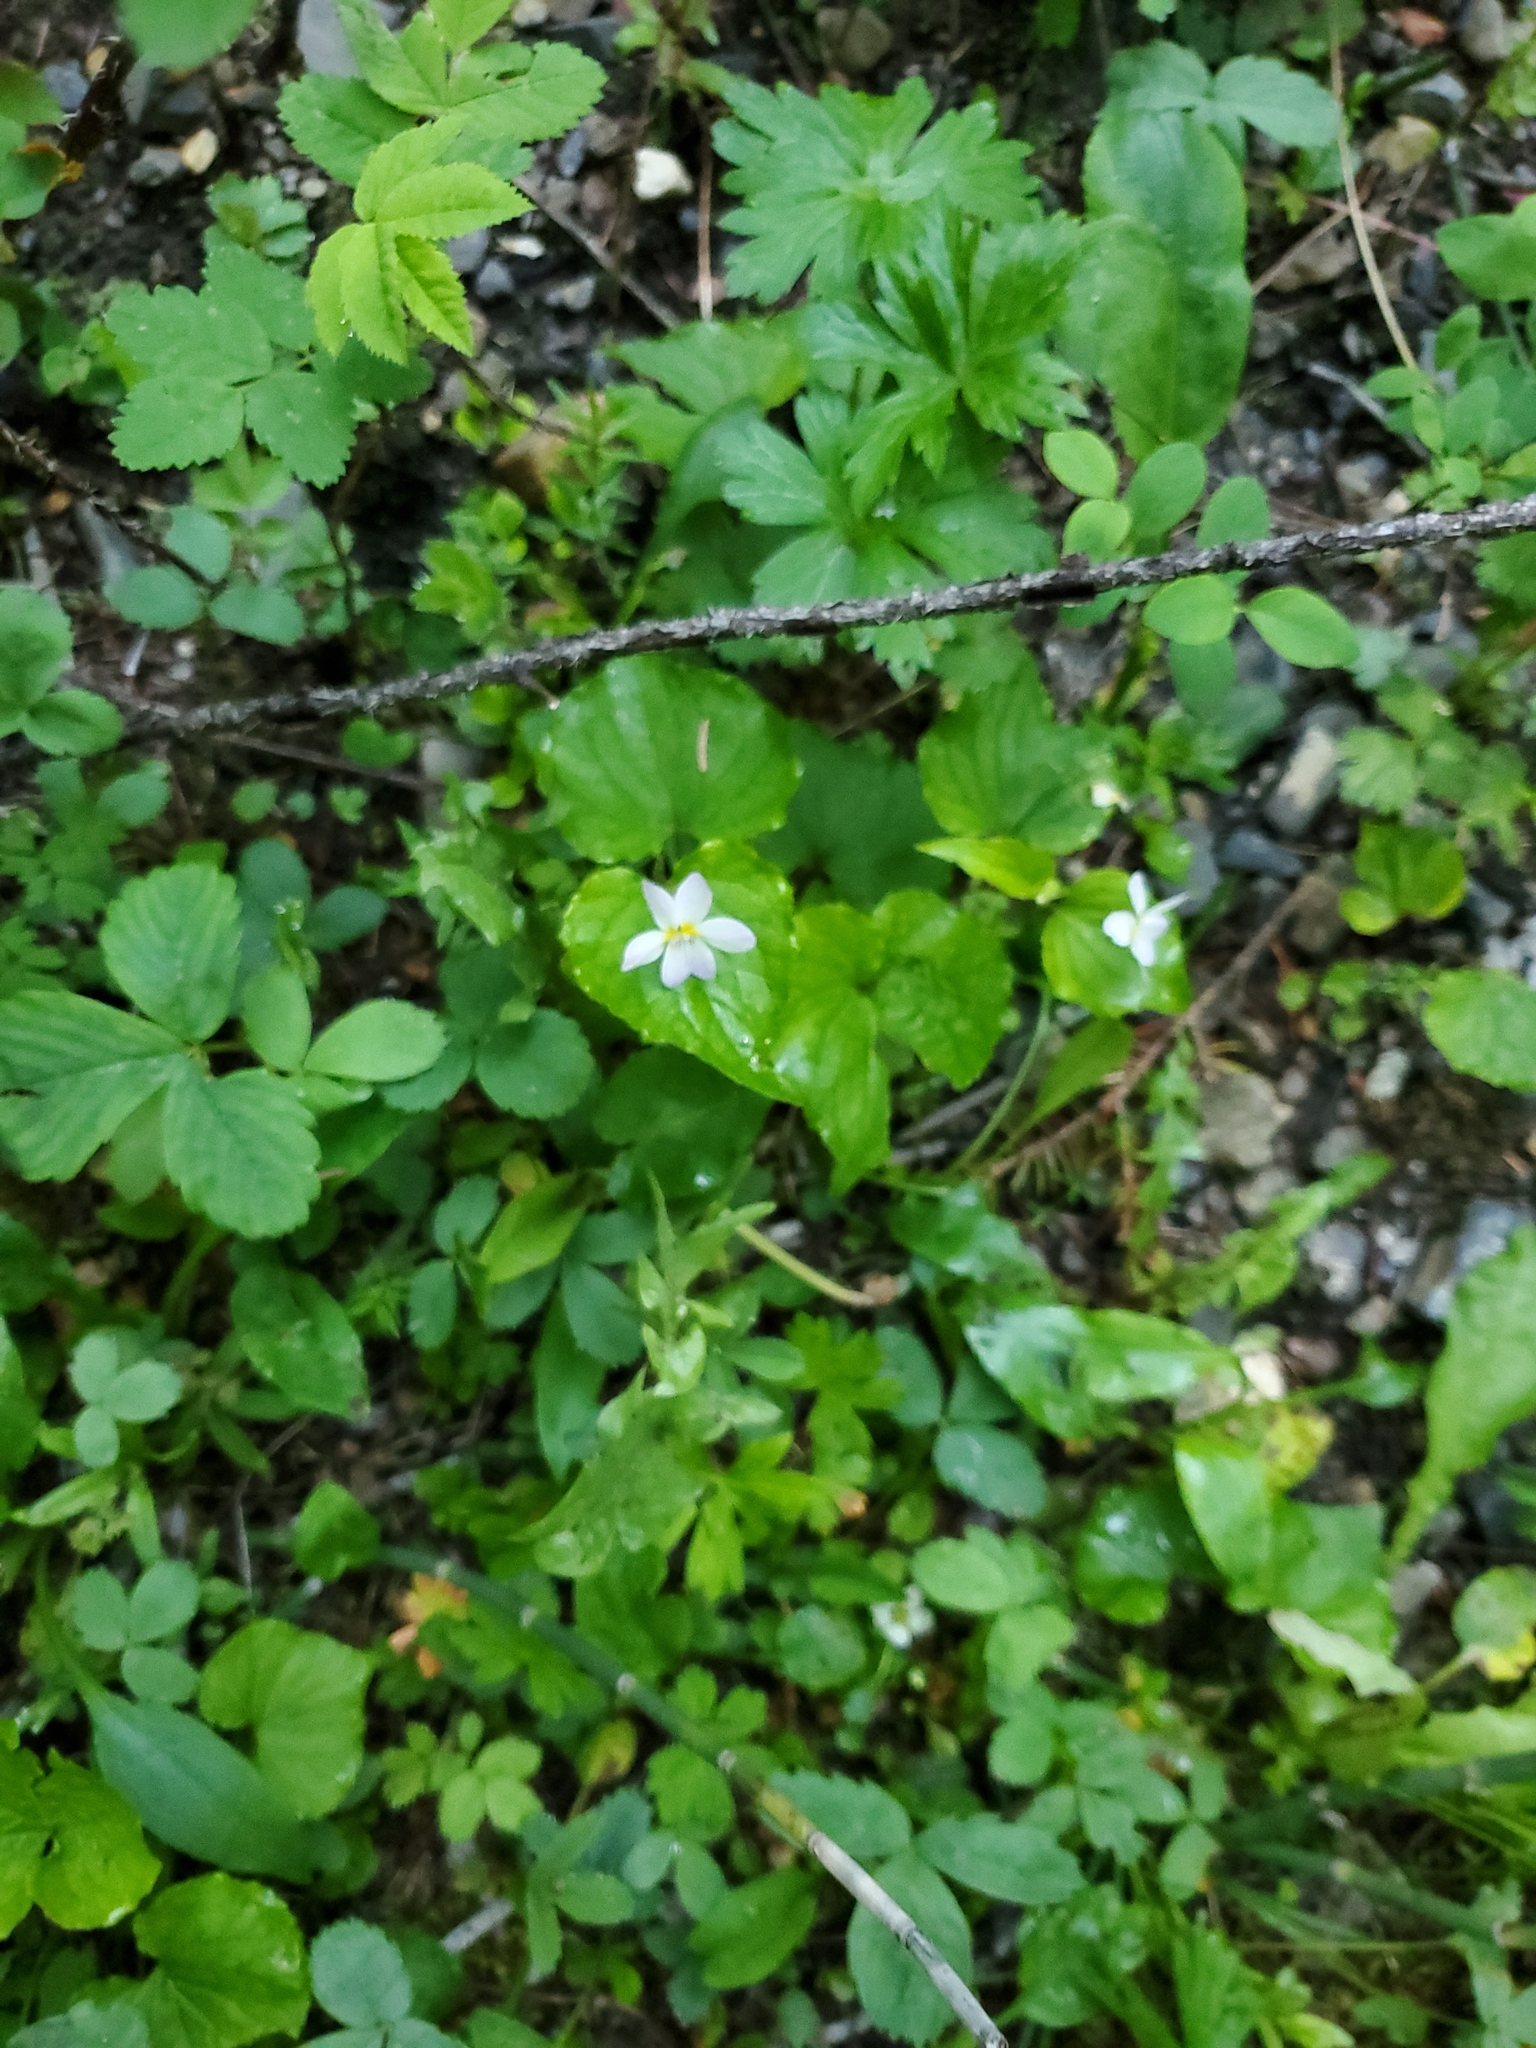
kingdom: Plantae
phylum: Tracheophyta
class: Magnoliopsida
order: Malpighiales
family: Violaceae
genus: Viola
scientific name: Viola canadensis
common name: Canada violet
